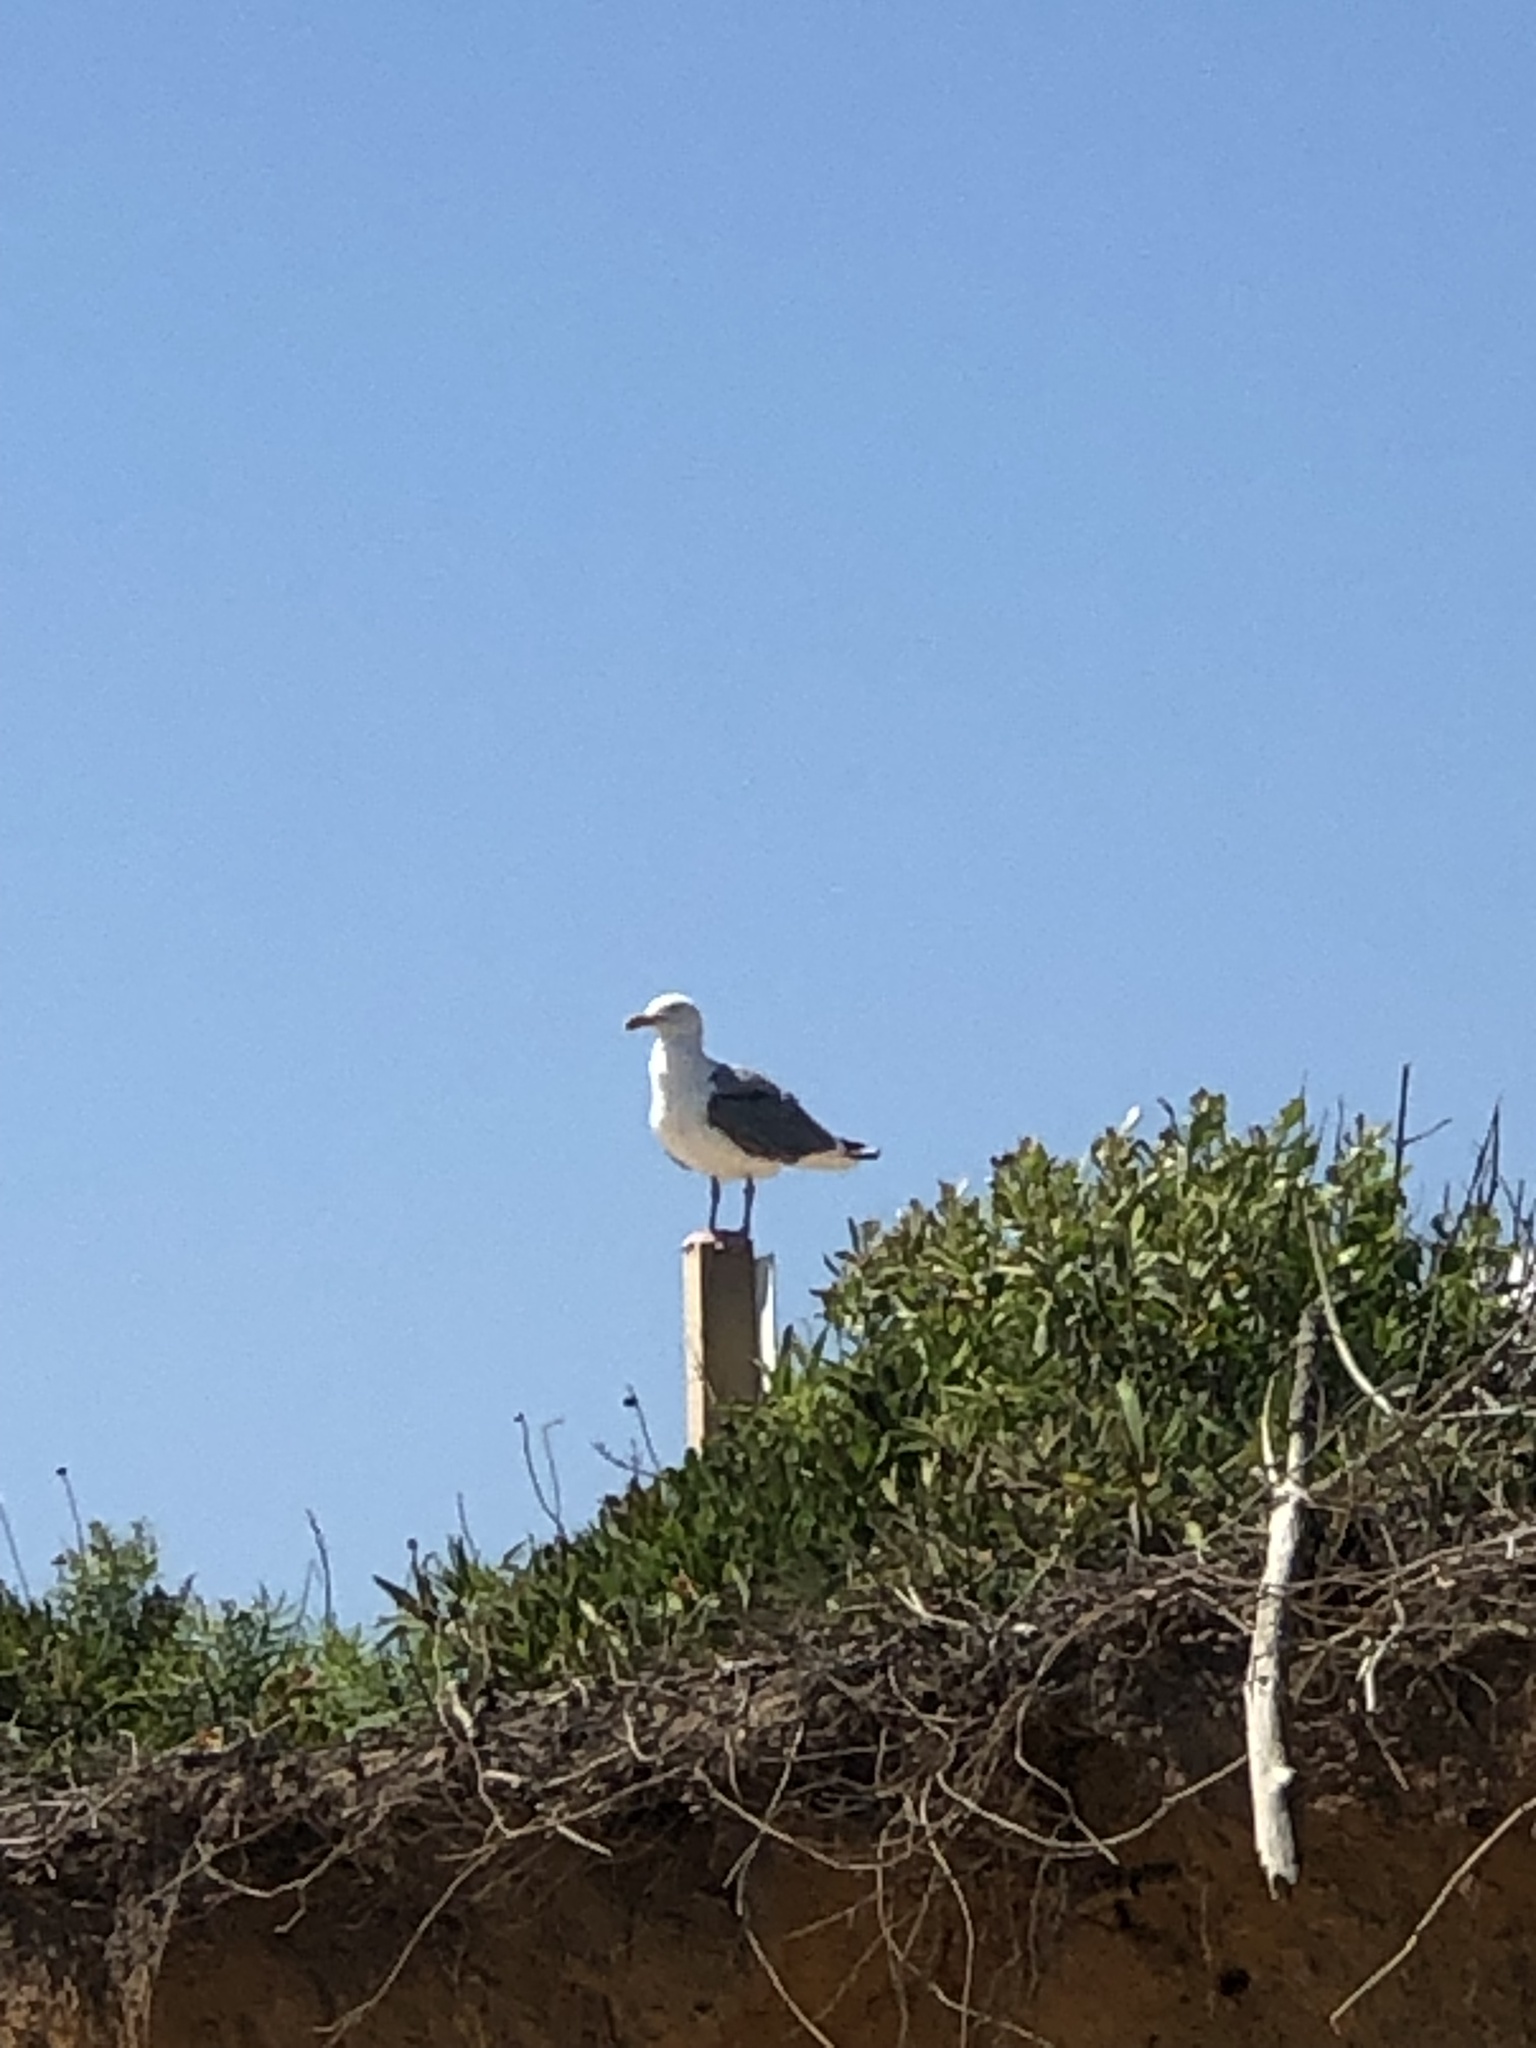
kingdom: Animalia
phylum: Chordata
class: Aves
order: Charadriiformes
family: Laridae
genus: Larus
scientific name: Larus marinus
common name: Great black-backed gull
